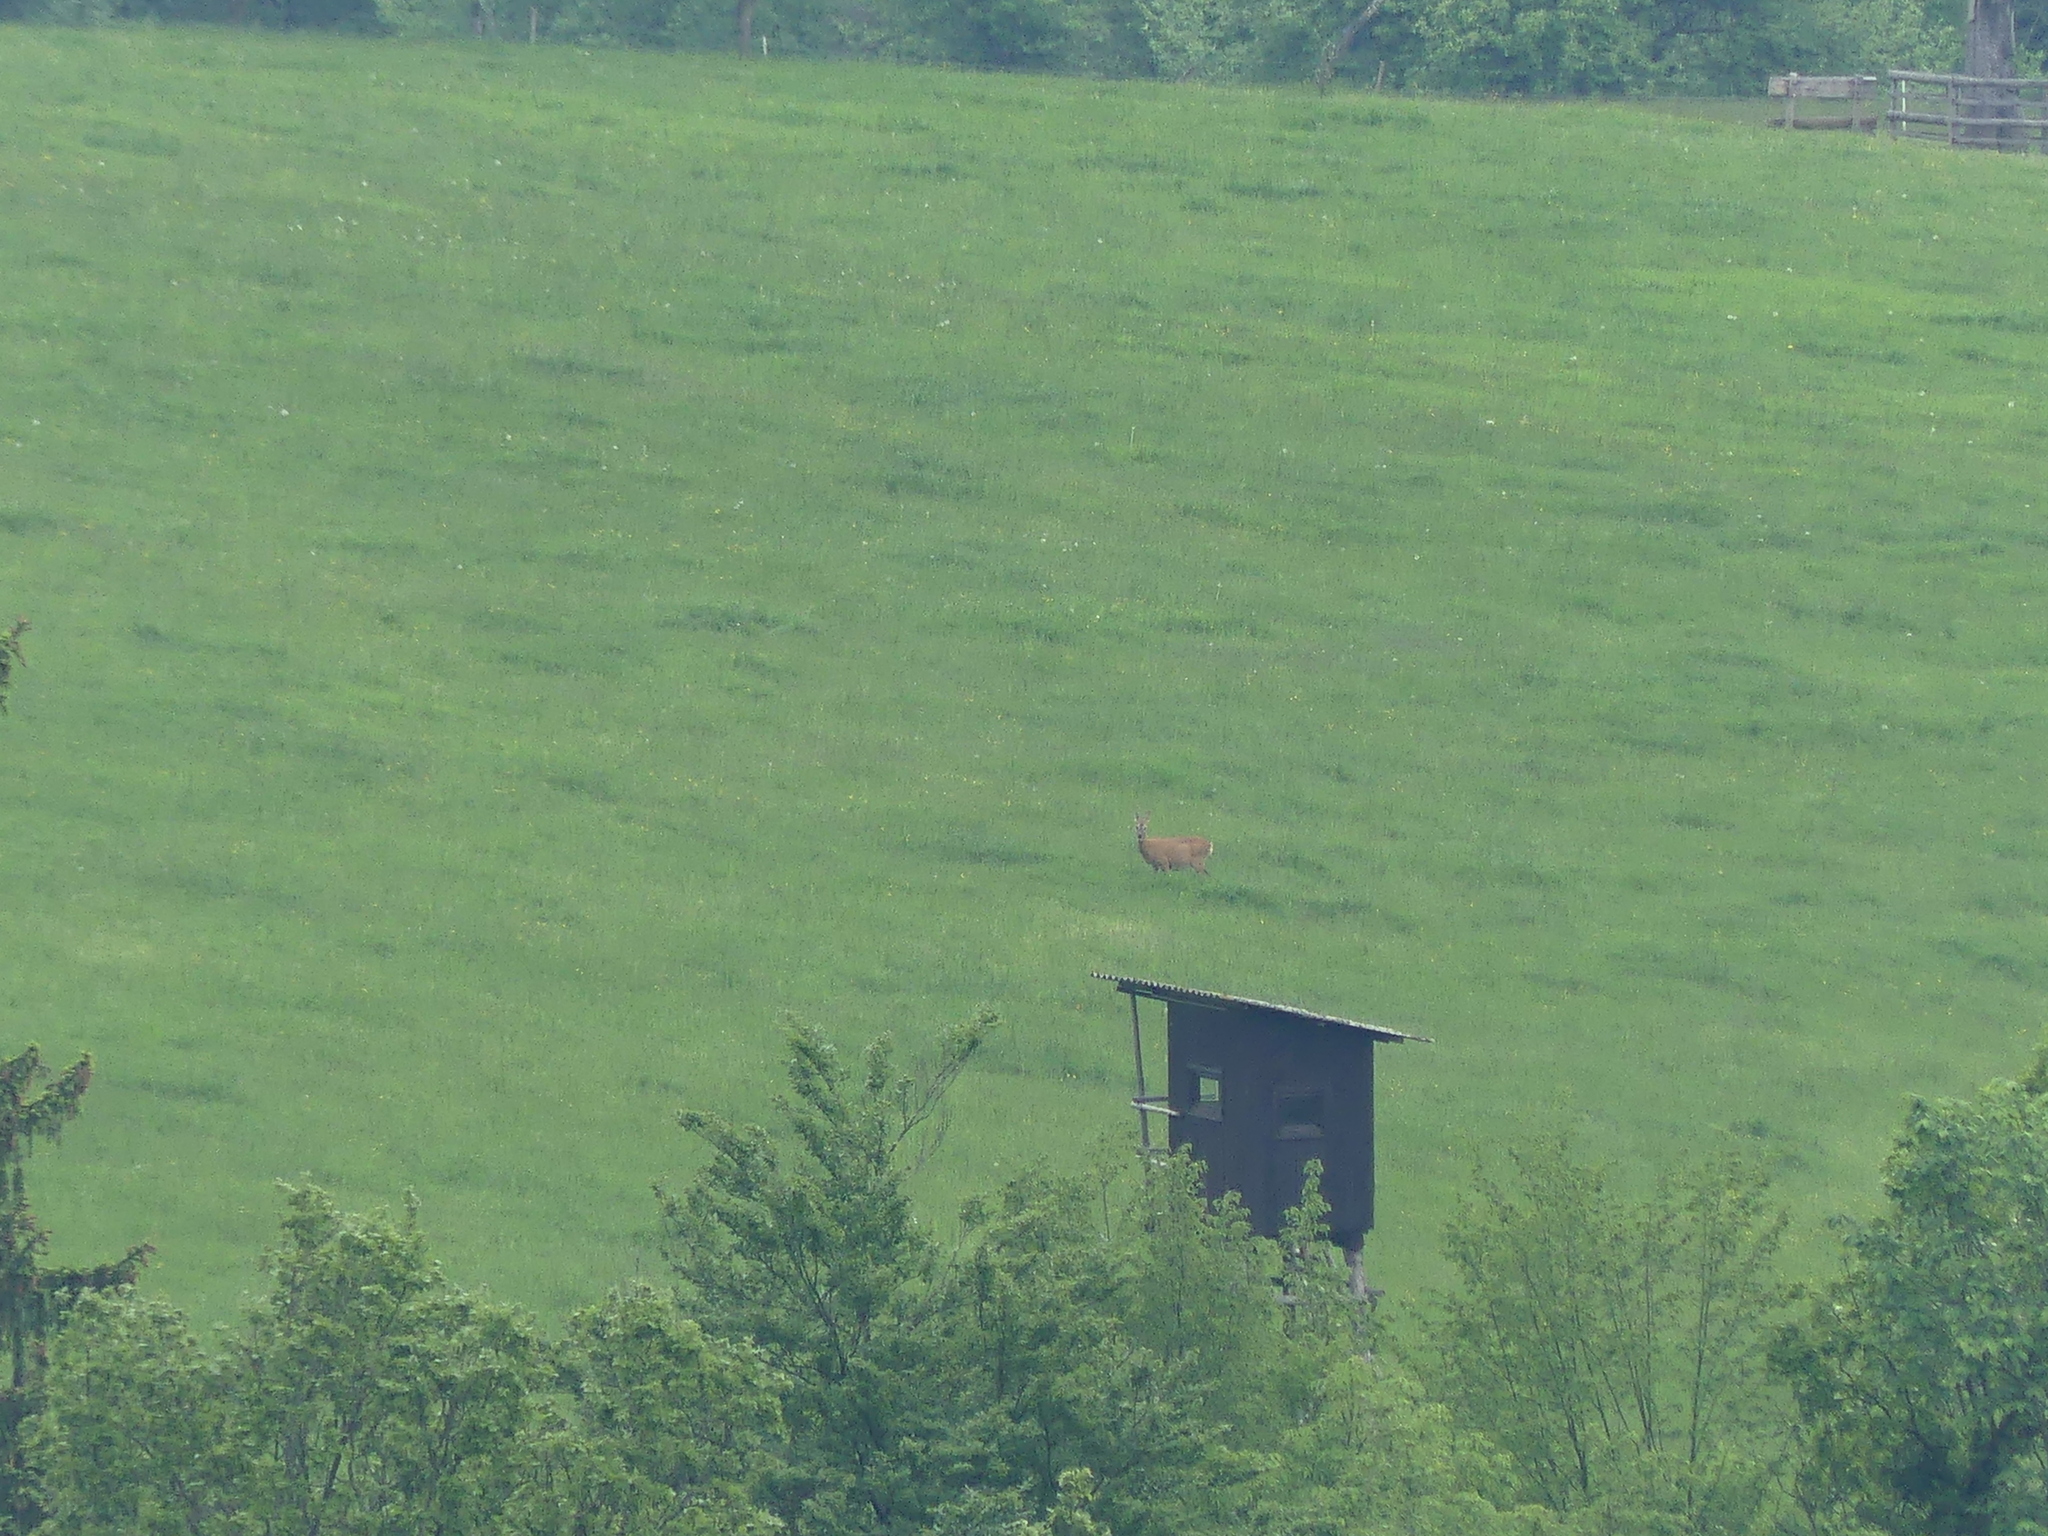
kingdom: Animalia
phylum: Chordata
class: Mammalia
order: Artiodactyla
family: Cervidae
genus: Capreolus
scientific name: Capreolus capreolus
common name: Western roe deer
